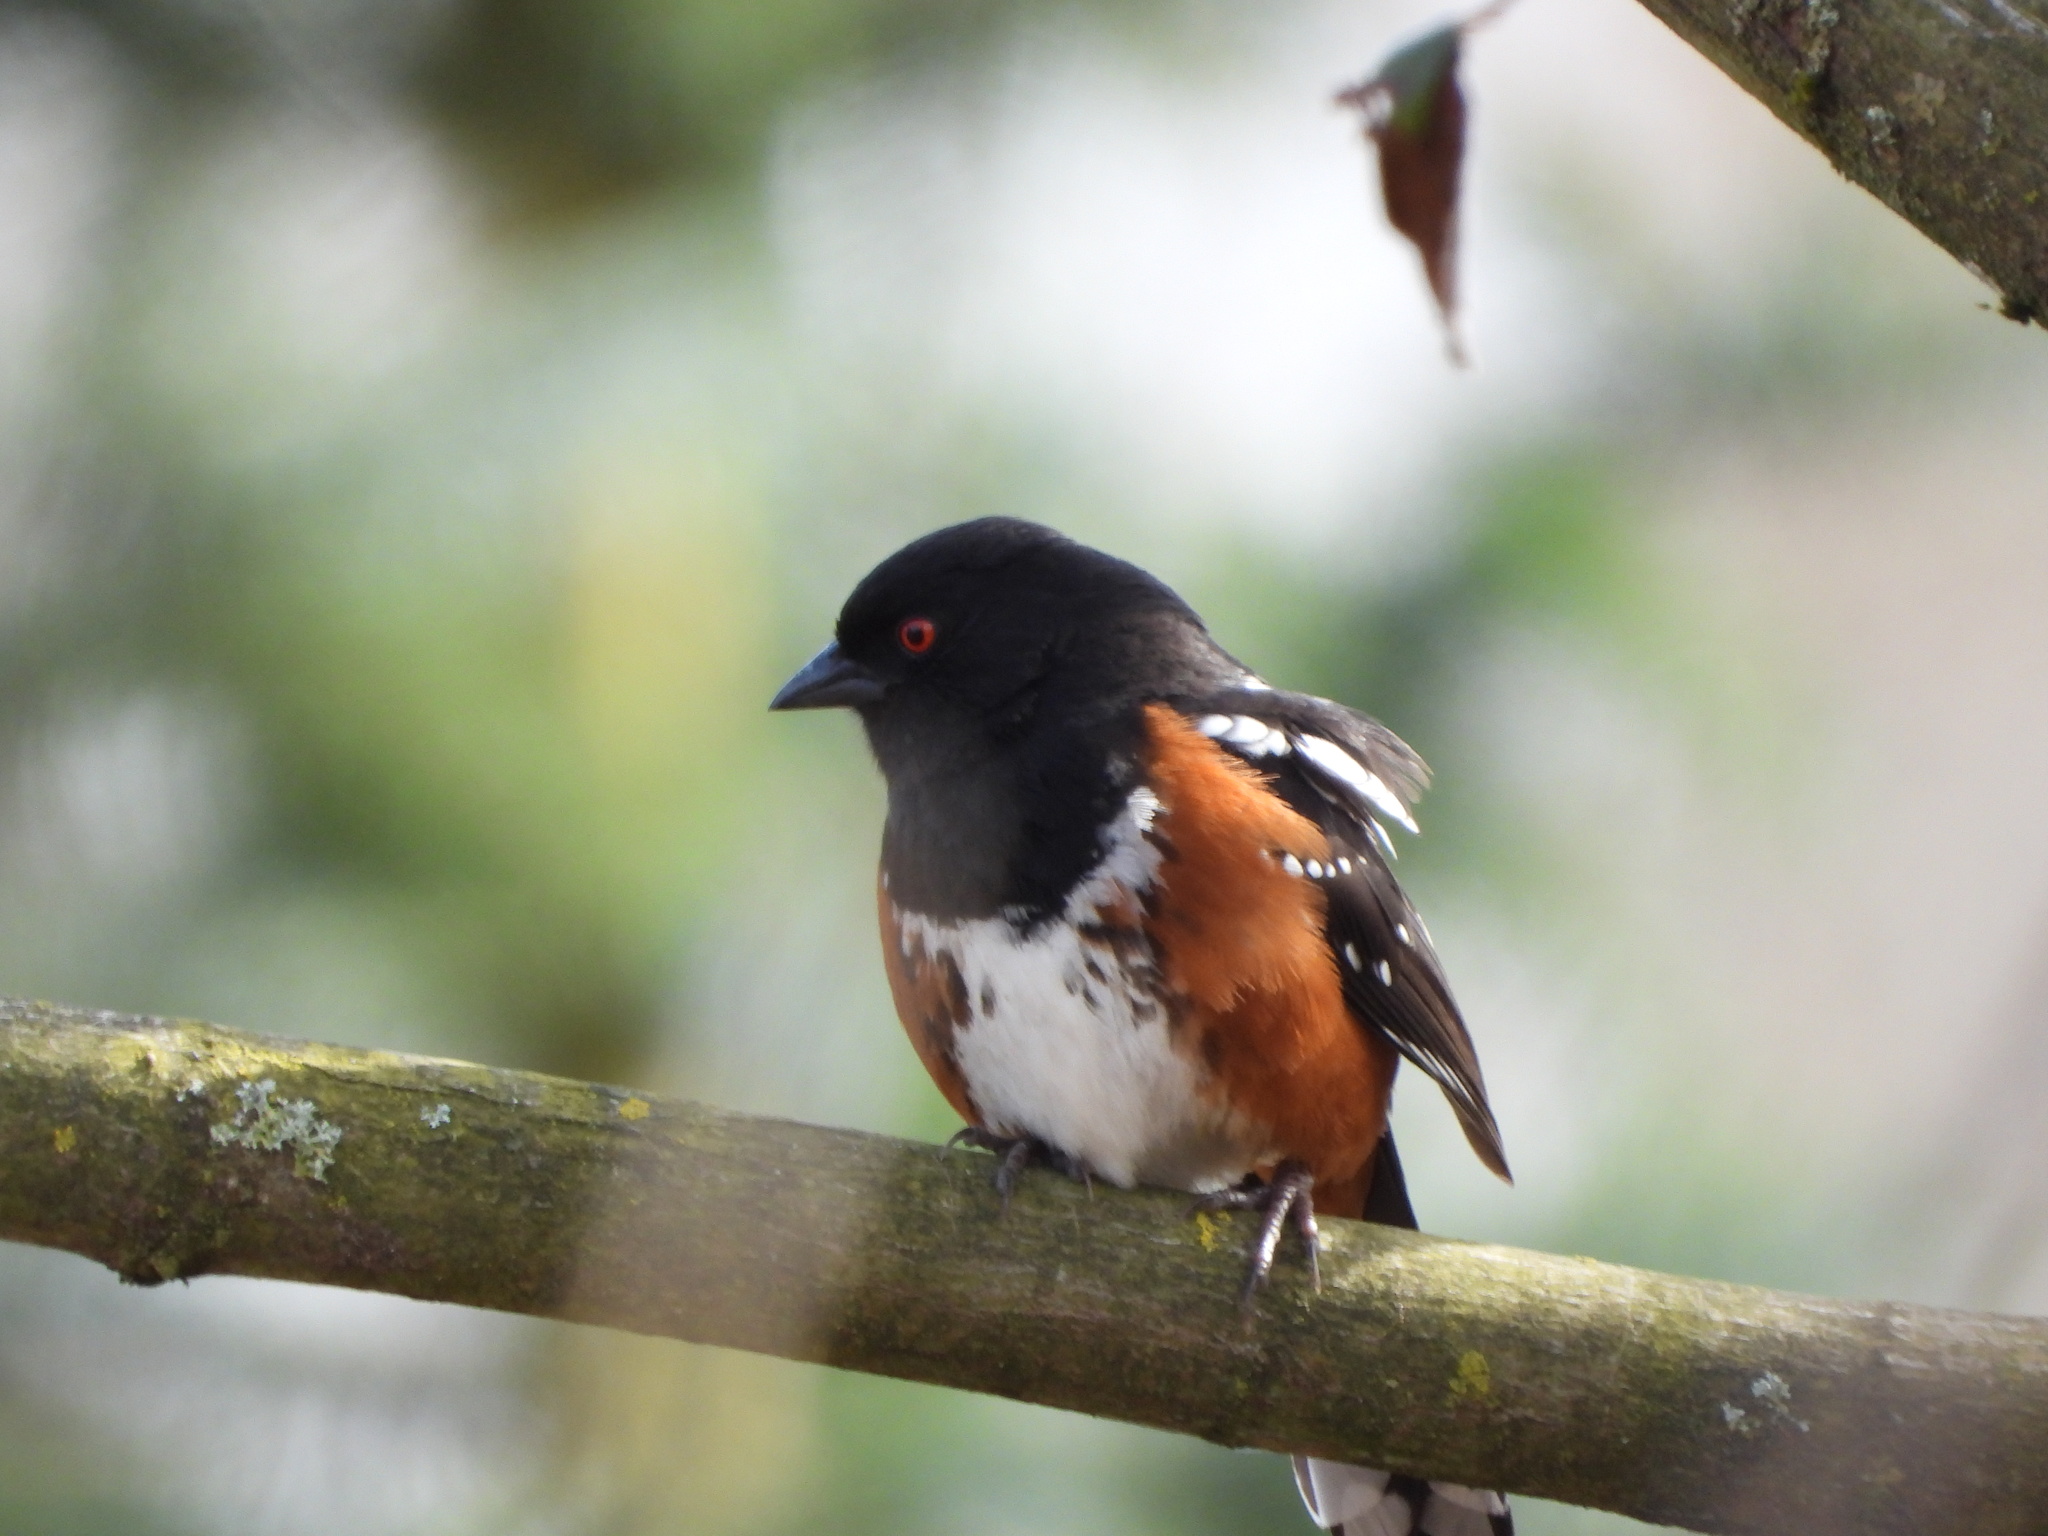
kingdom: Animalia
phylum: Chordata
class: Aves
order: Passeriformes
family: Passerellidae
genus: Pipilo
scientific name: Pipilo maculatus
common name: Spotted towhee
